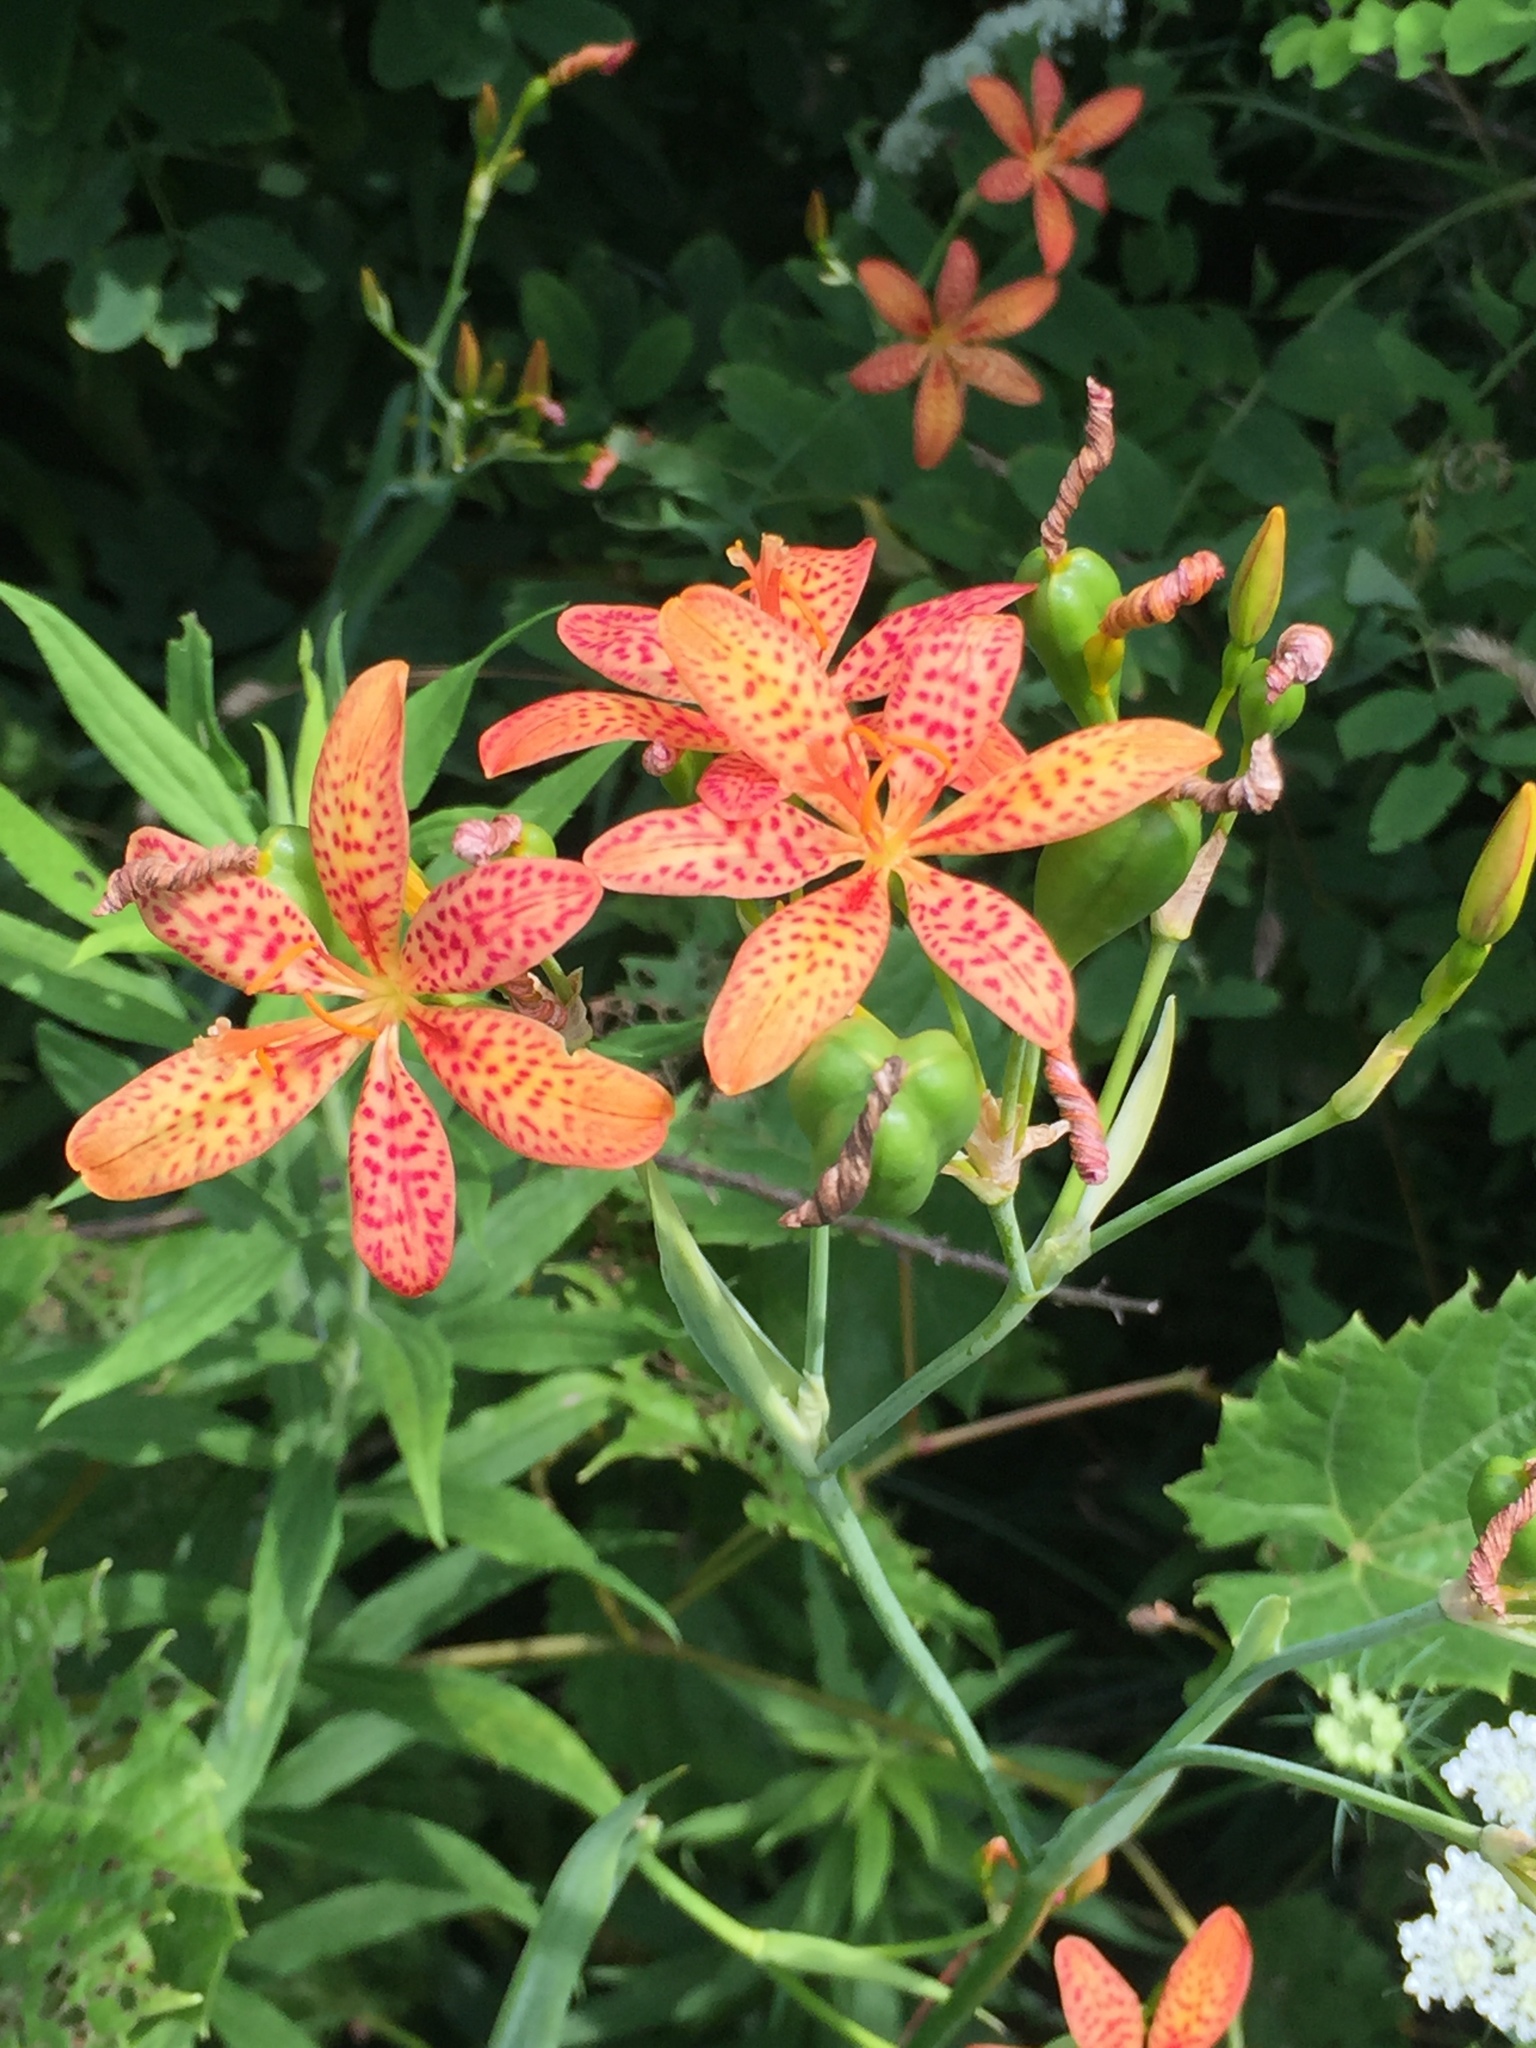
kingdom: Plantae
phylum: Tracheophyta
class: Liliopsida
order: Asparagales
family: Iridaceae
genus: Iris
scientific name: Iris domestica
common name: Belamcanda
